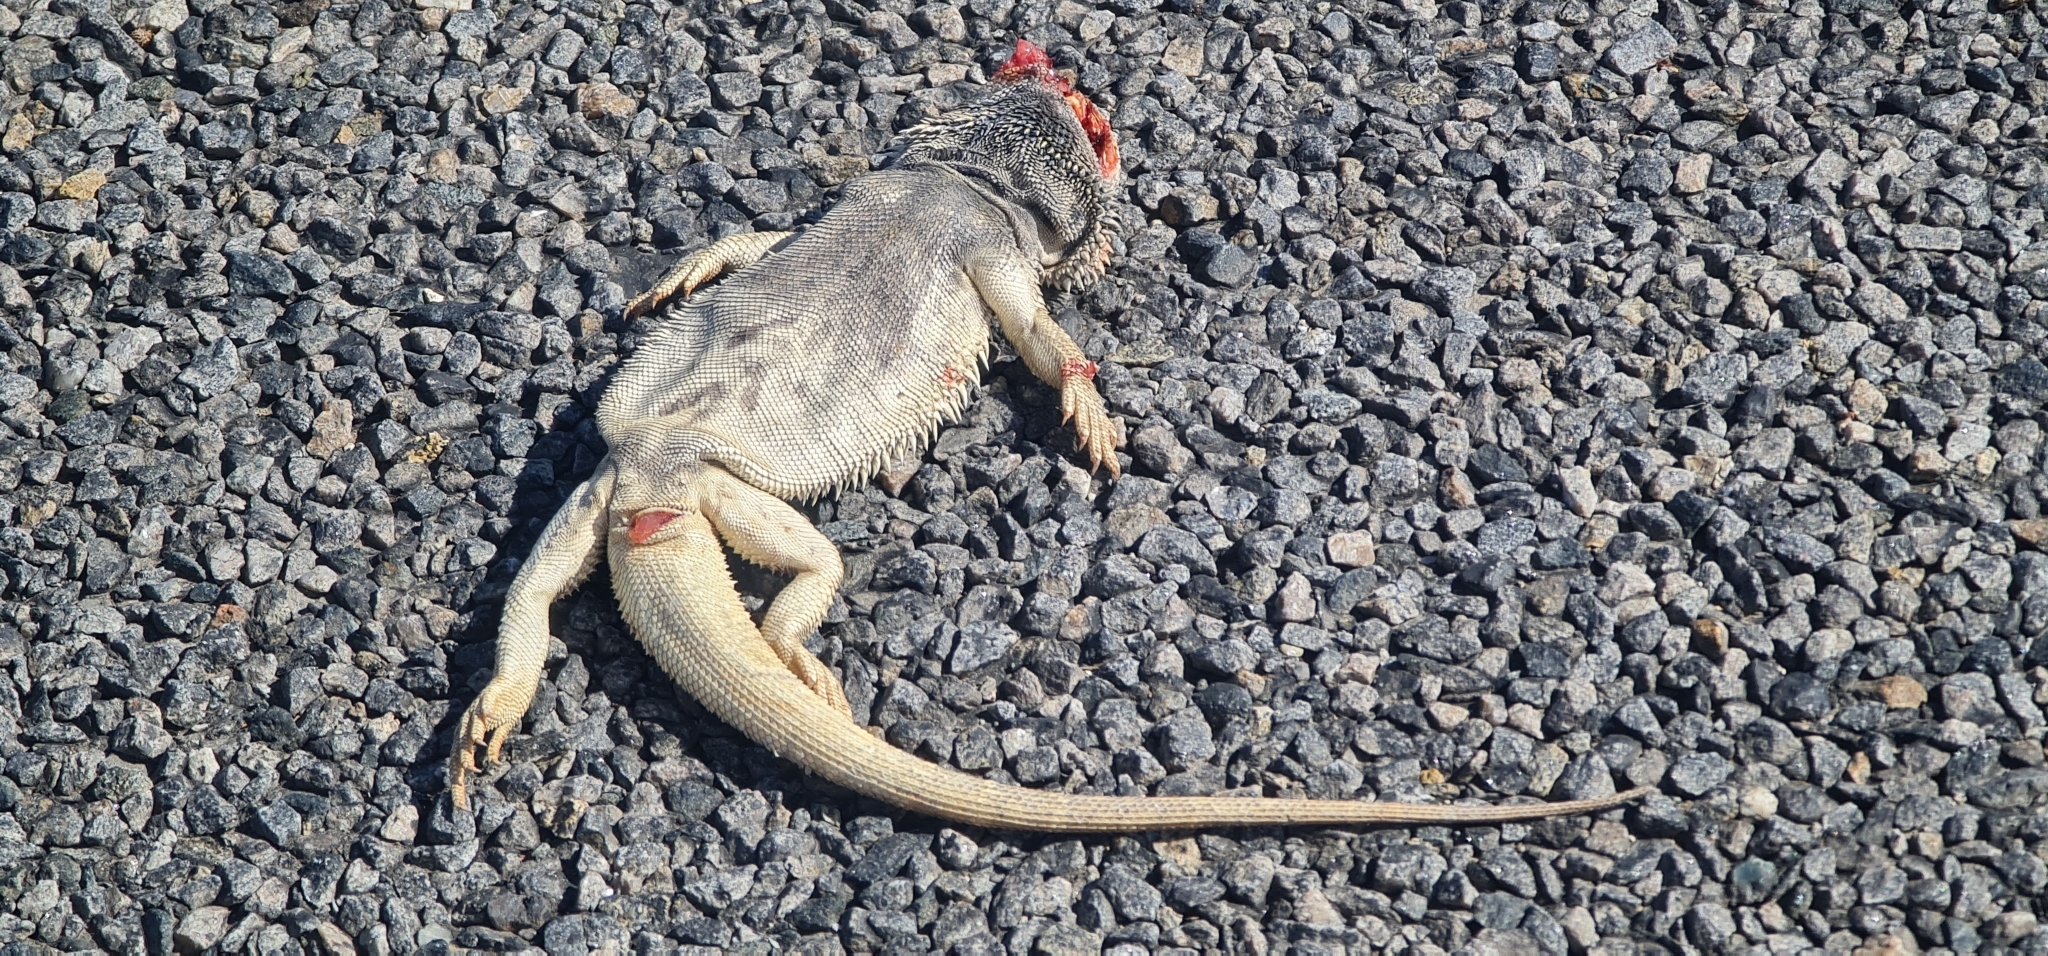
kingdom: Animalia
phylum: Chordata
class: Squamata
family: Agamidae
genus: Pogona
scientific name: Pogona vitticeps
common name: Central bearded dragon
